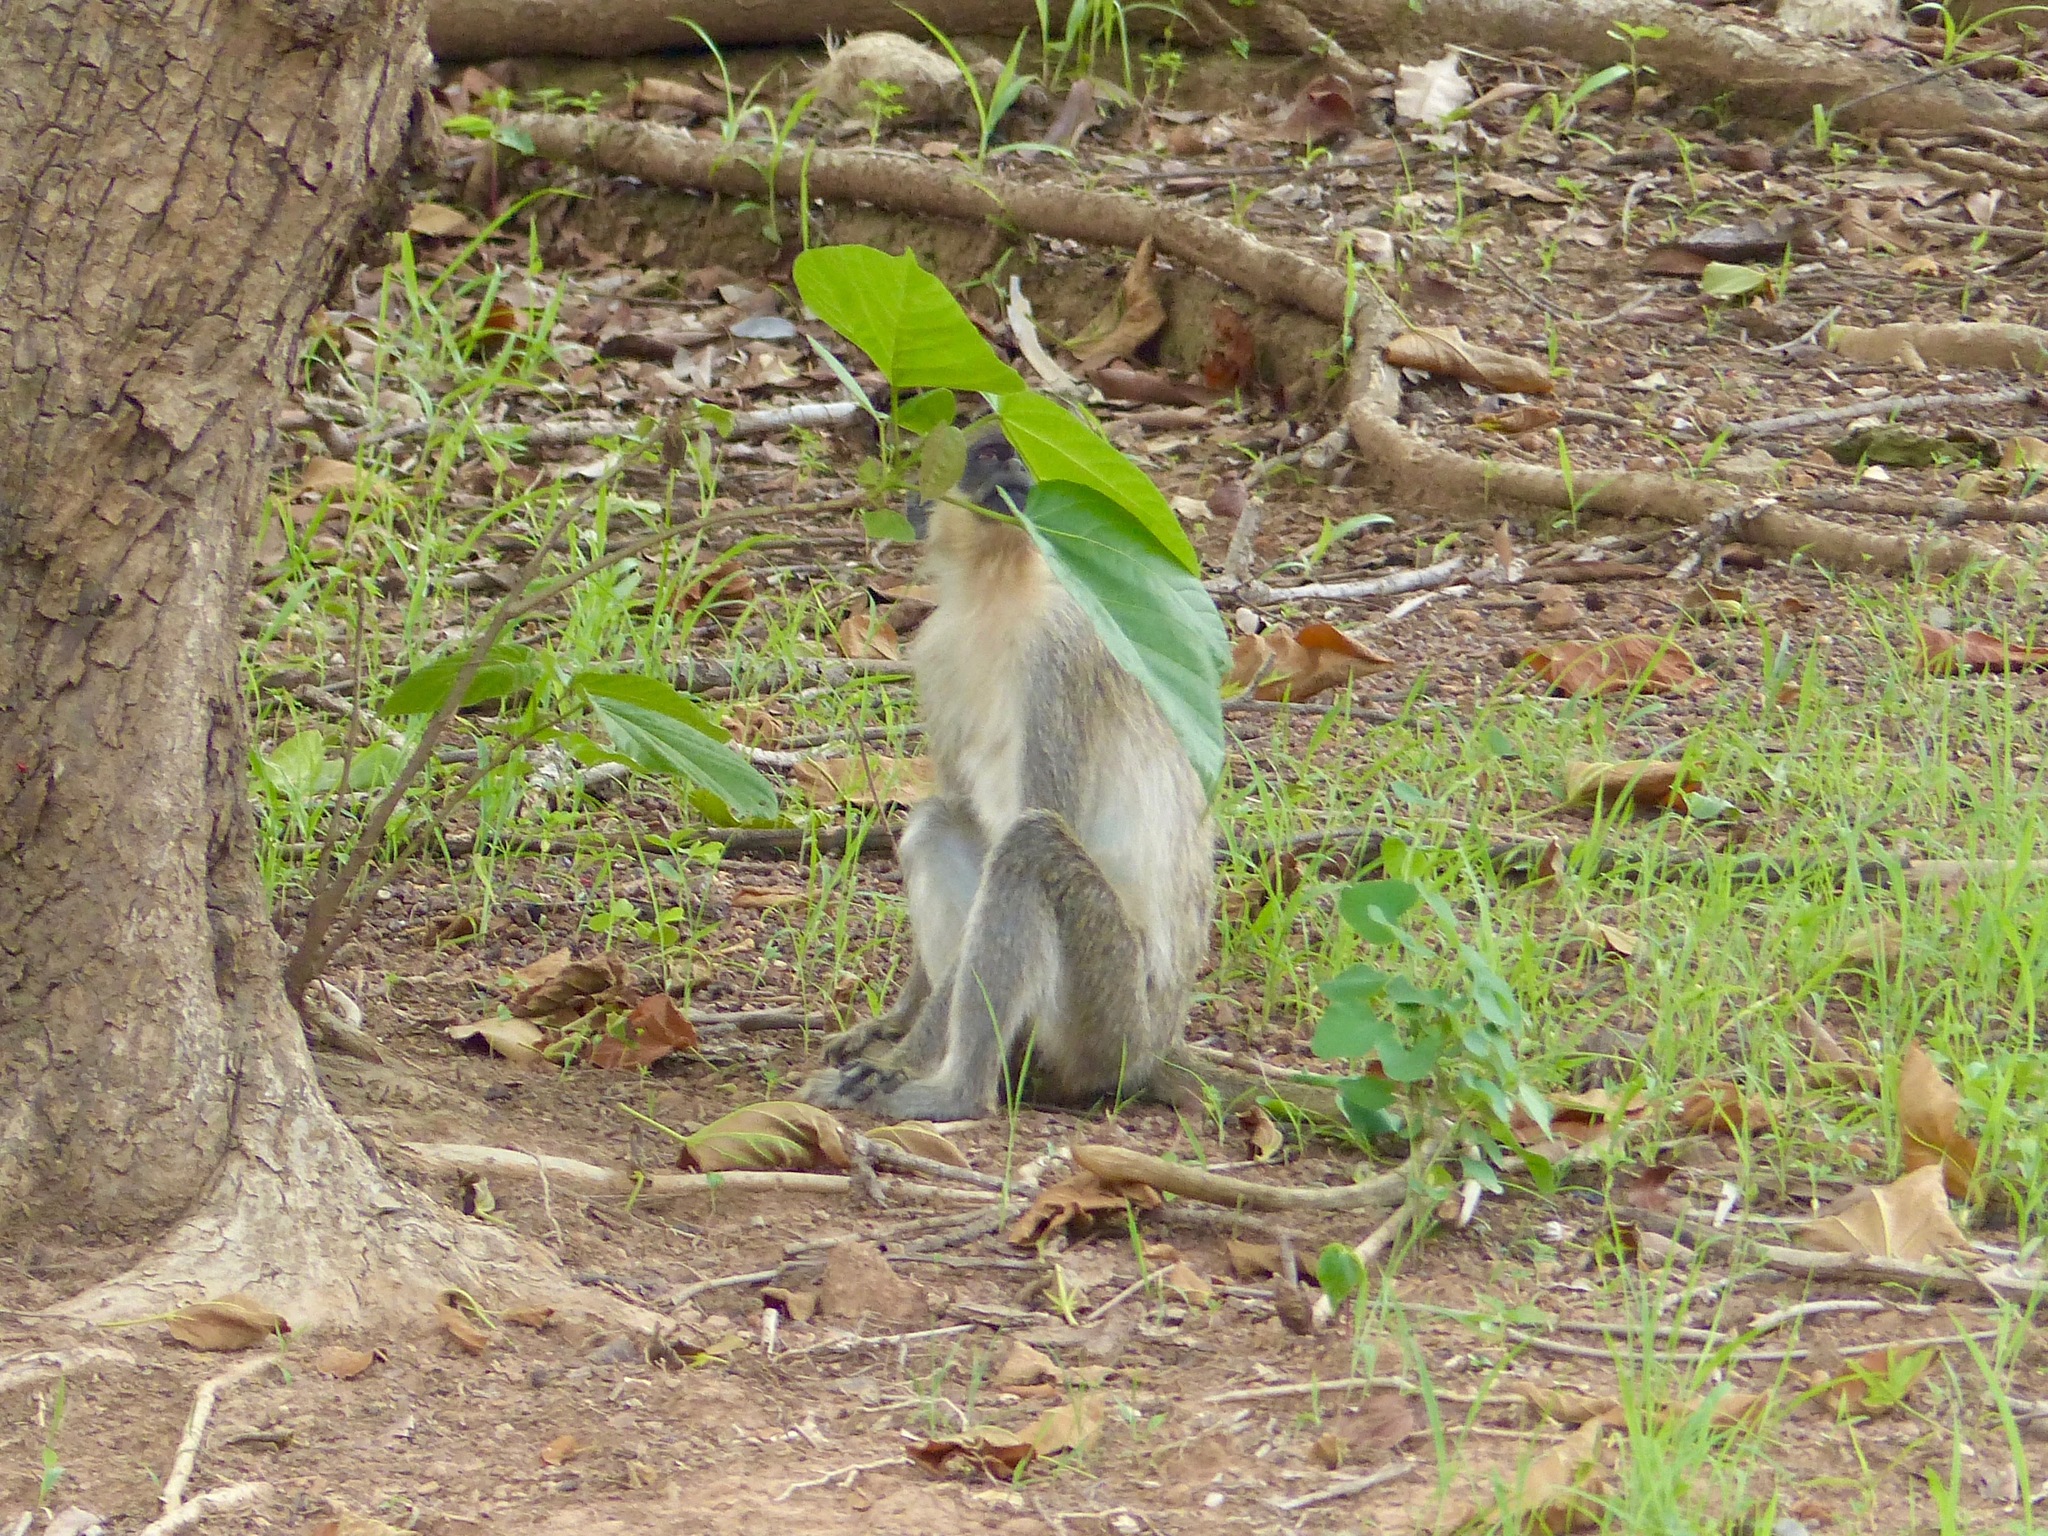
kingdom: Animalia
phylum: Chordata
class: Mammalia
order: Primates
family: Cercopithecidae
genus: Chlorocebus
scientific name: Chlorocebus sabaeus
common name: Green monkey
